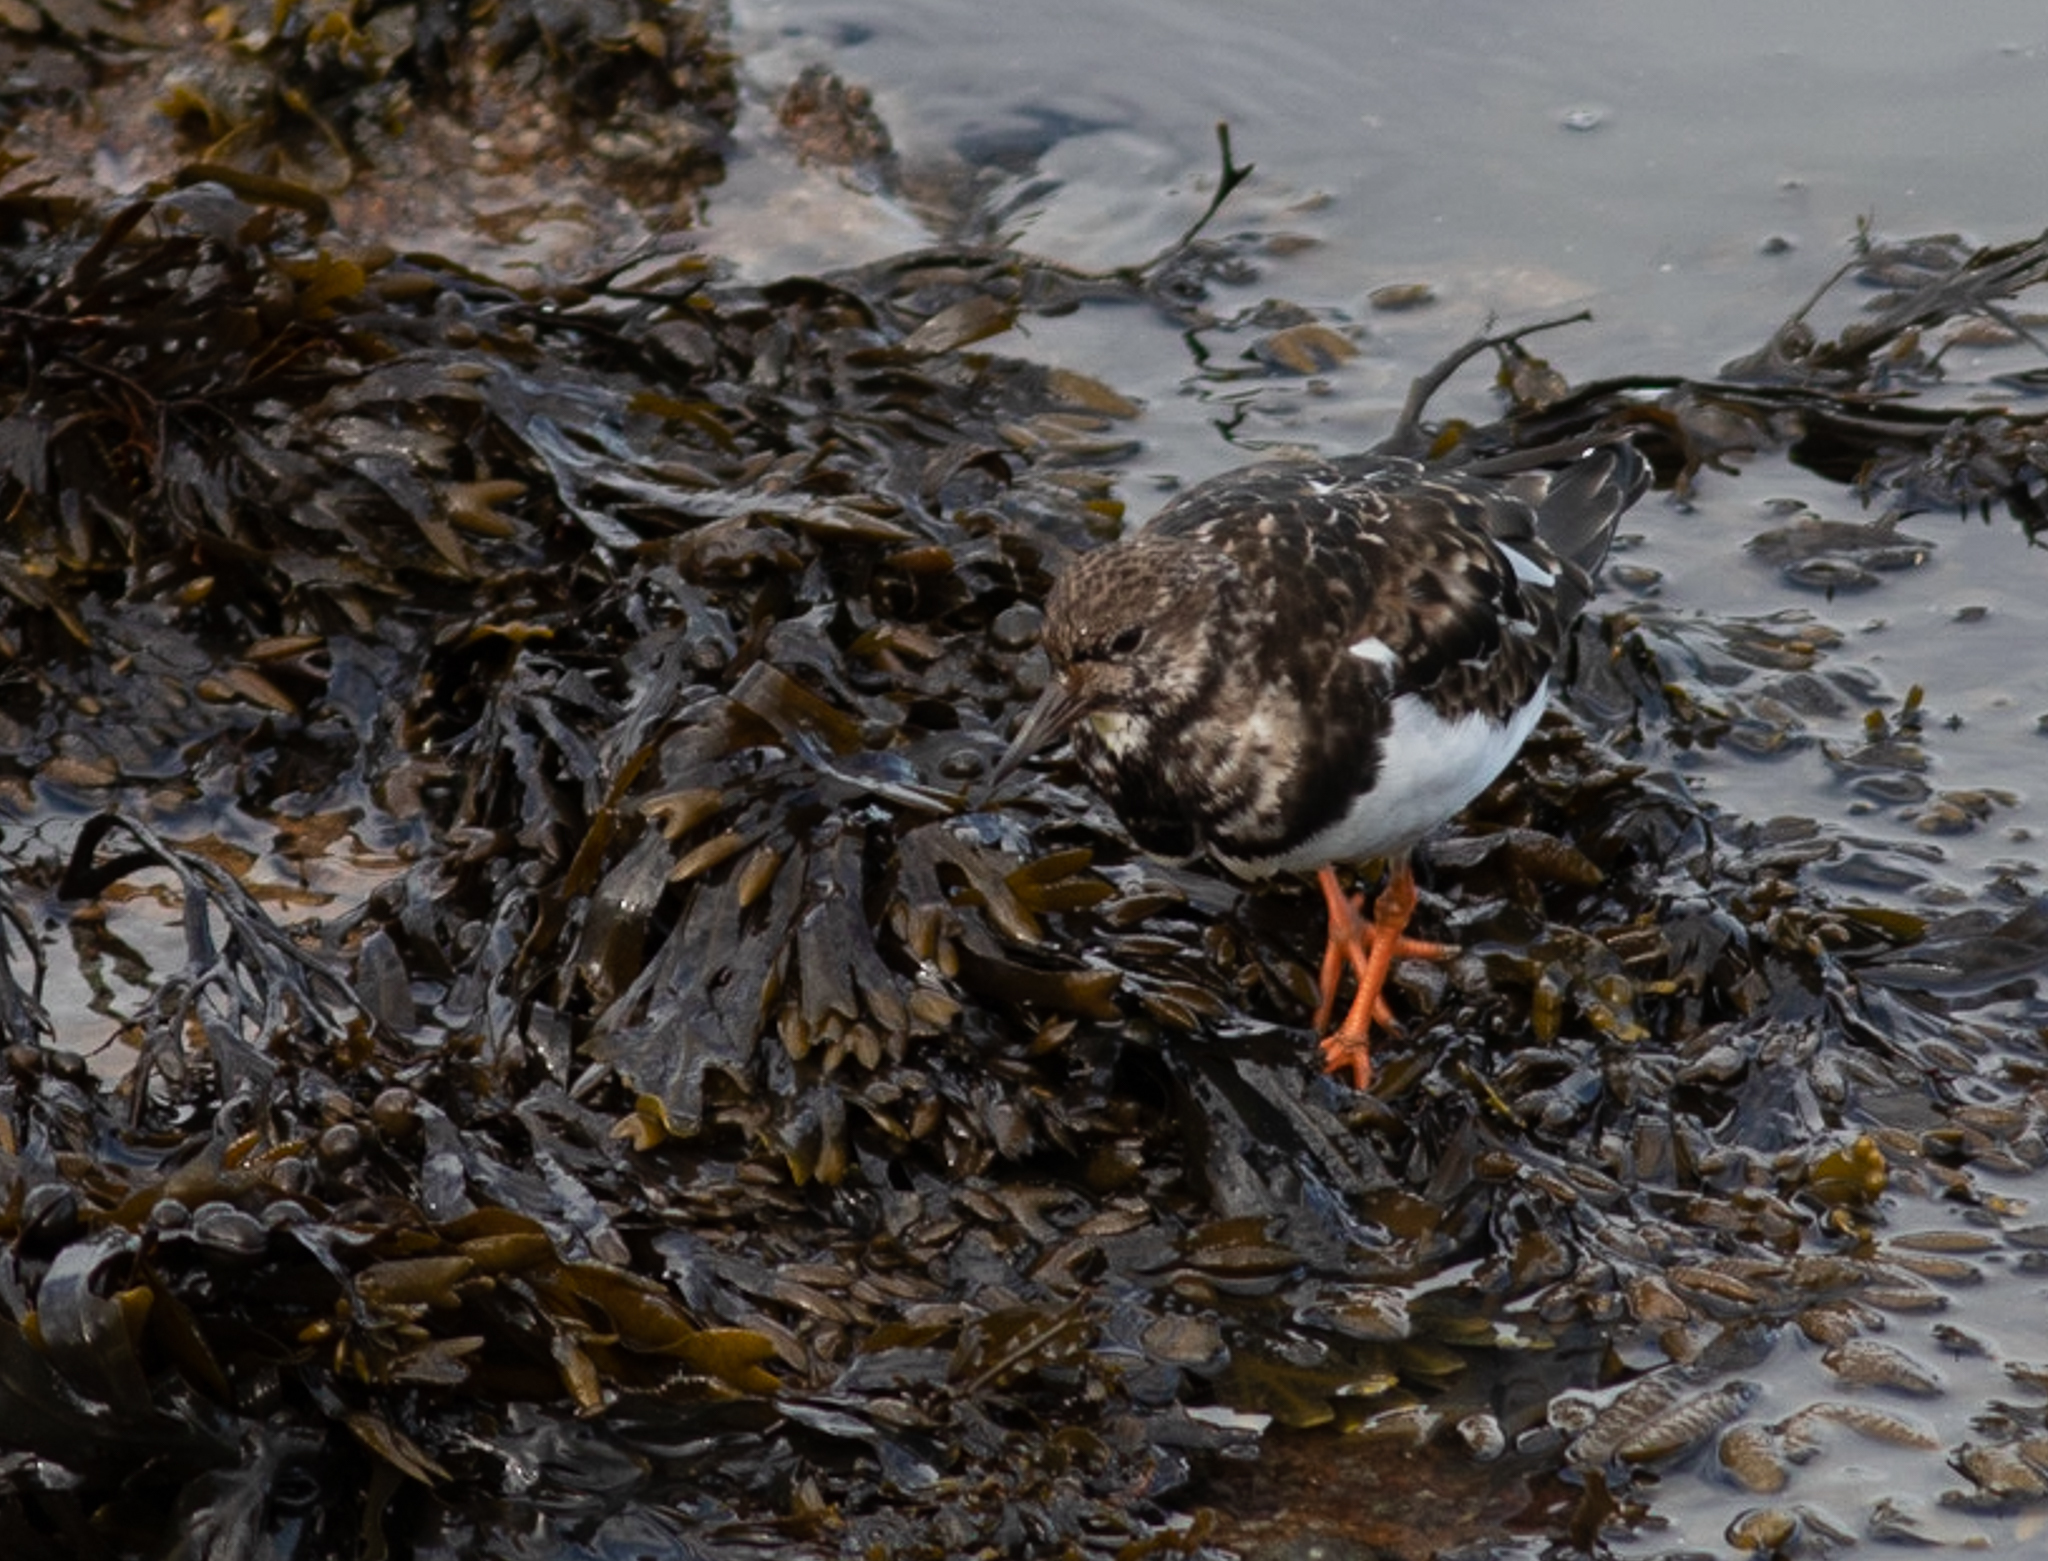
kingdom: Animalia
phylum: Chordata
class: Aves
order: Charadriiformes
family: Scolopacidae
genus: Arenaria
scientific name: Arenaria interpres
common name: Ruddy turnstone
